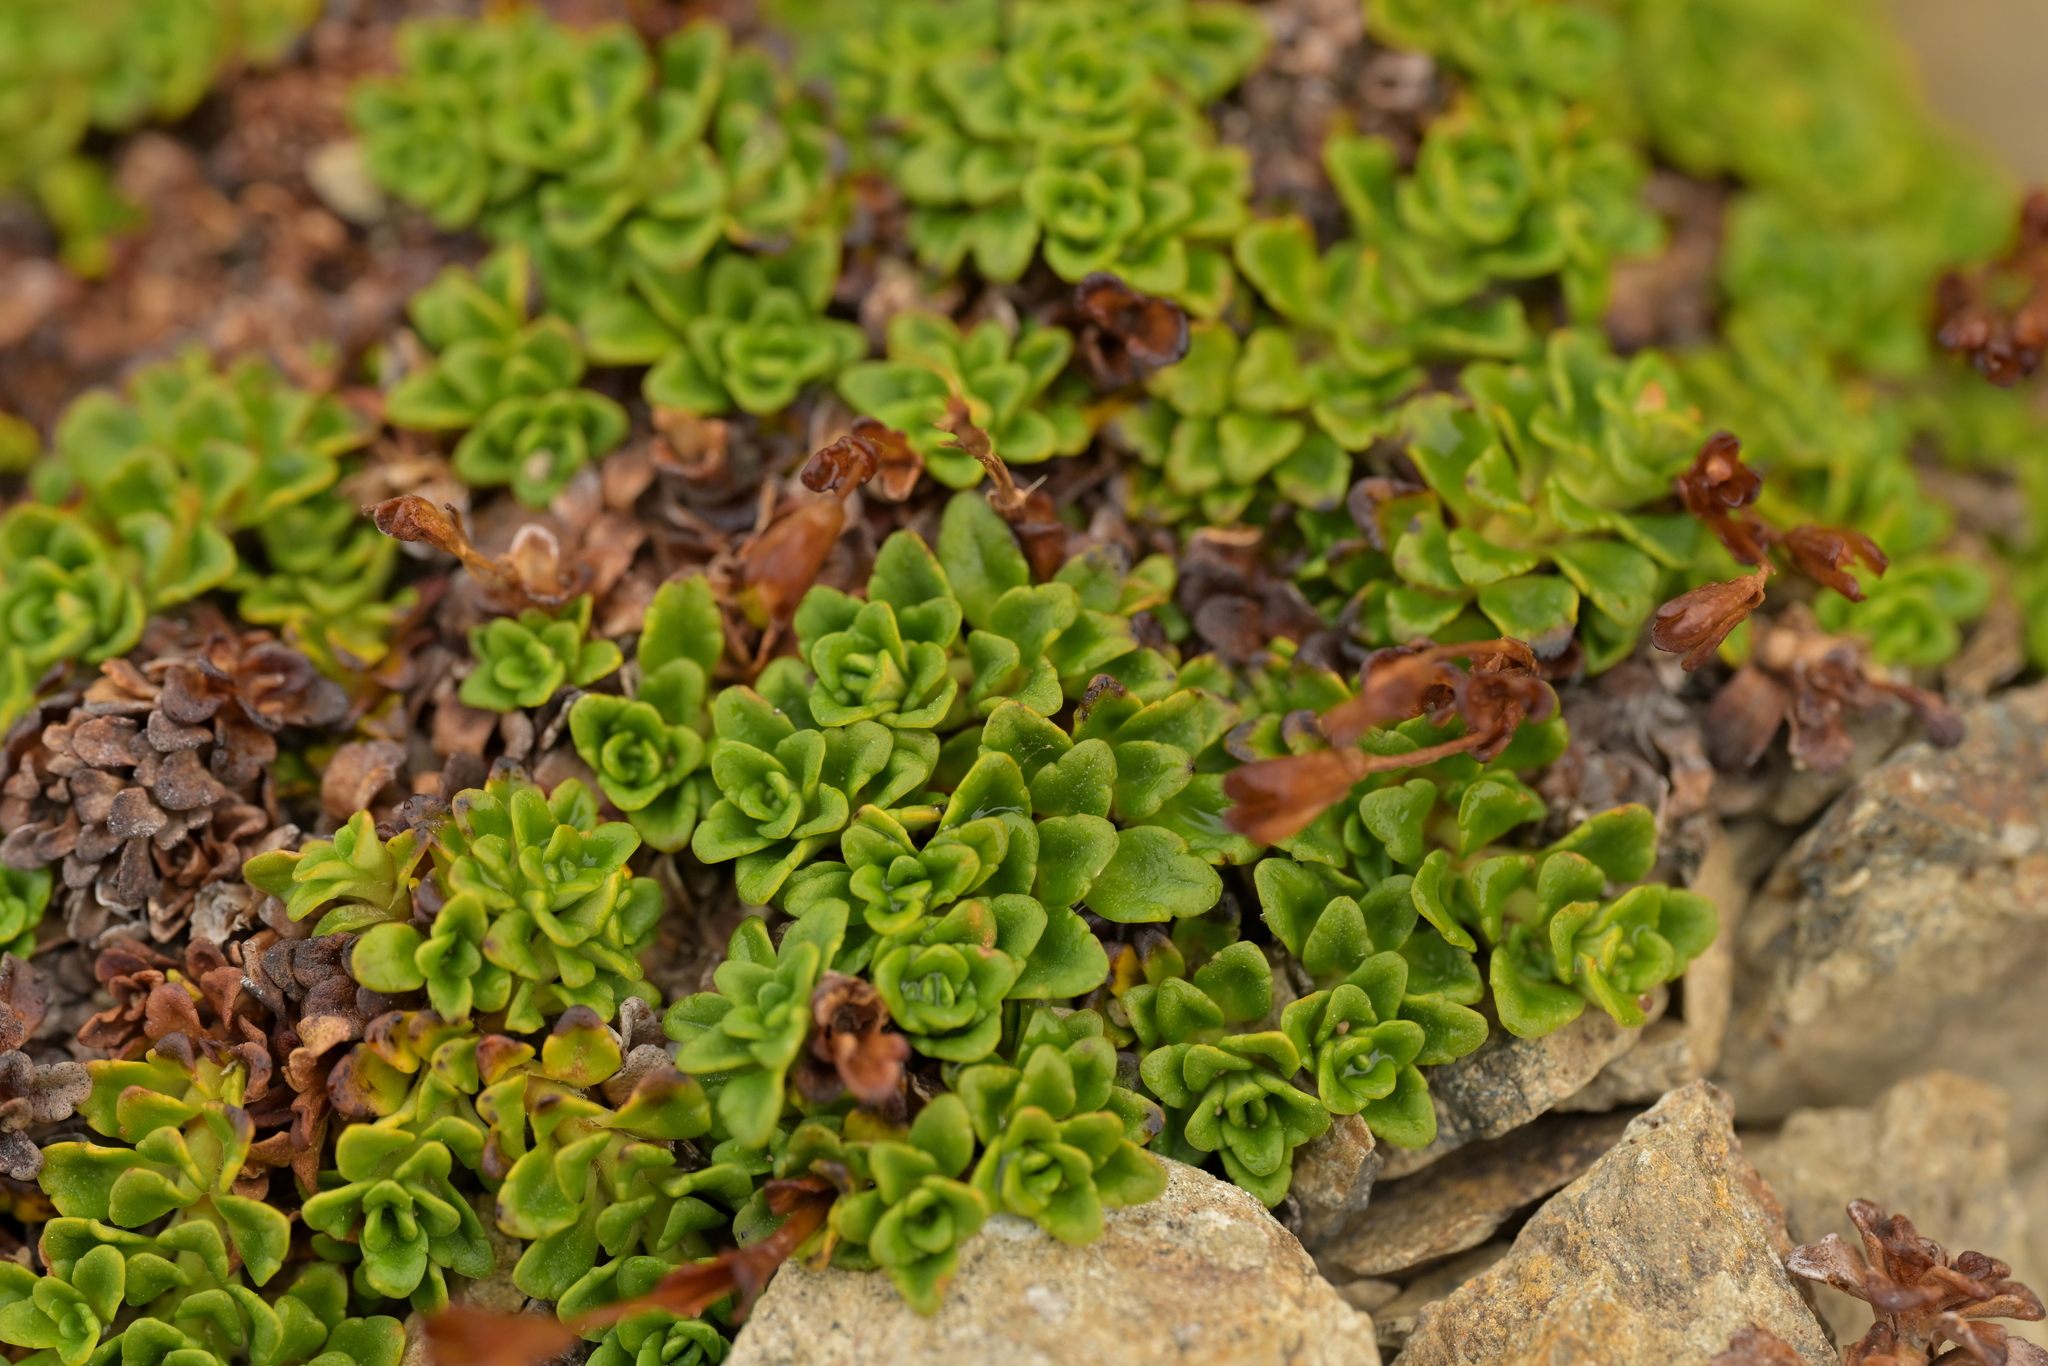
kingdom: Plantae
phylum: Tracheophyta
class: Magnoliopsida
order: Lamiales
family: Plantaginaceae
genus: Ourisia
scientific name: Ourisia caespitosa
